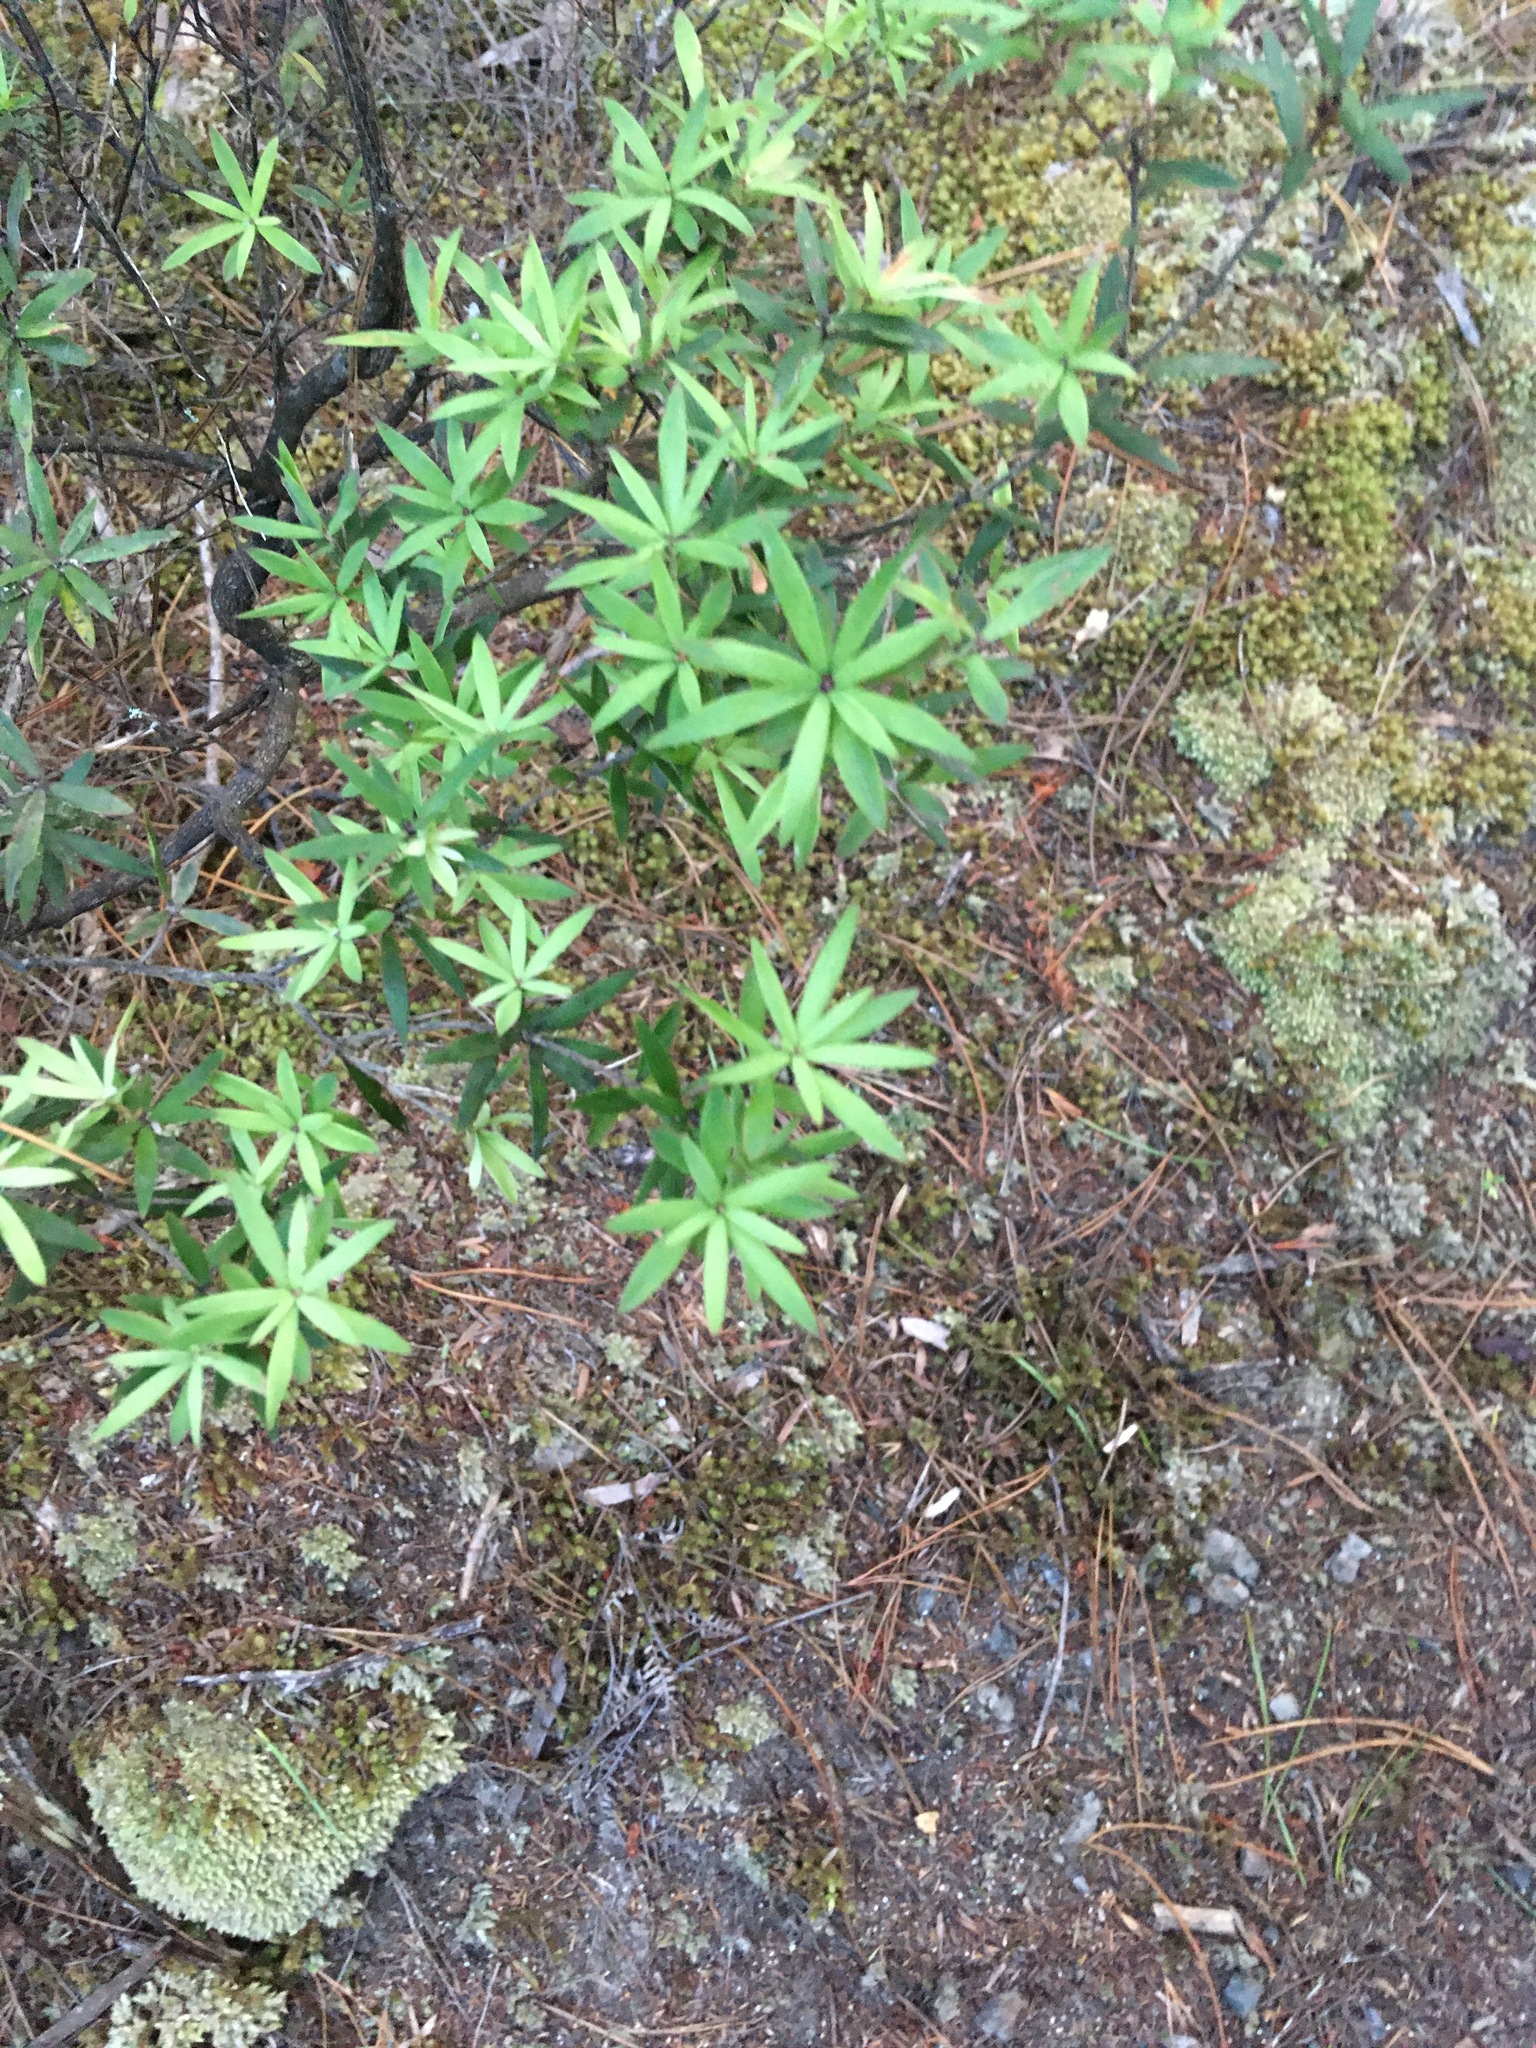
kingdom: Plantae
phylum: Tracheophyta
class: Magnoliopsida
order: Ericales
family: Ericaceae
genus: Leucopogon
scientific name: Leucopogon fasciculatus
